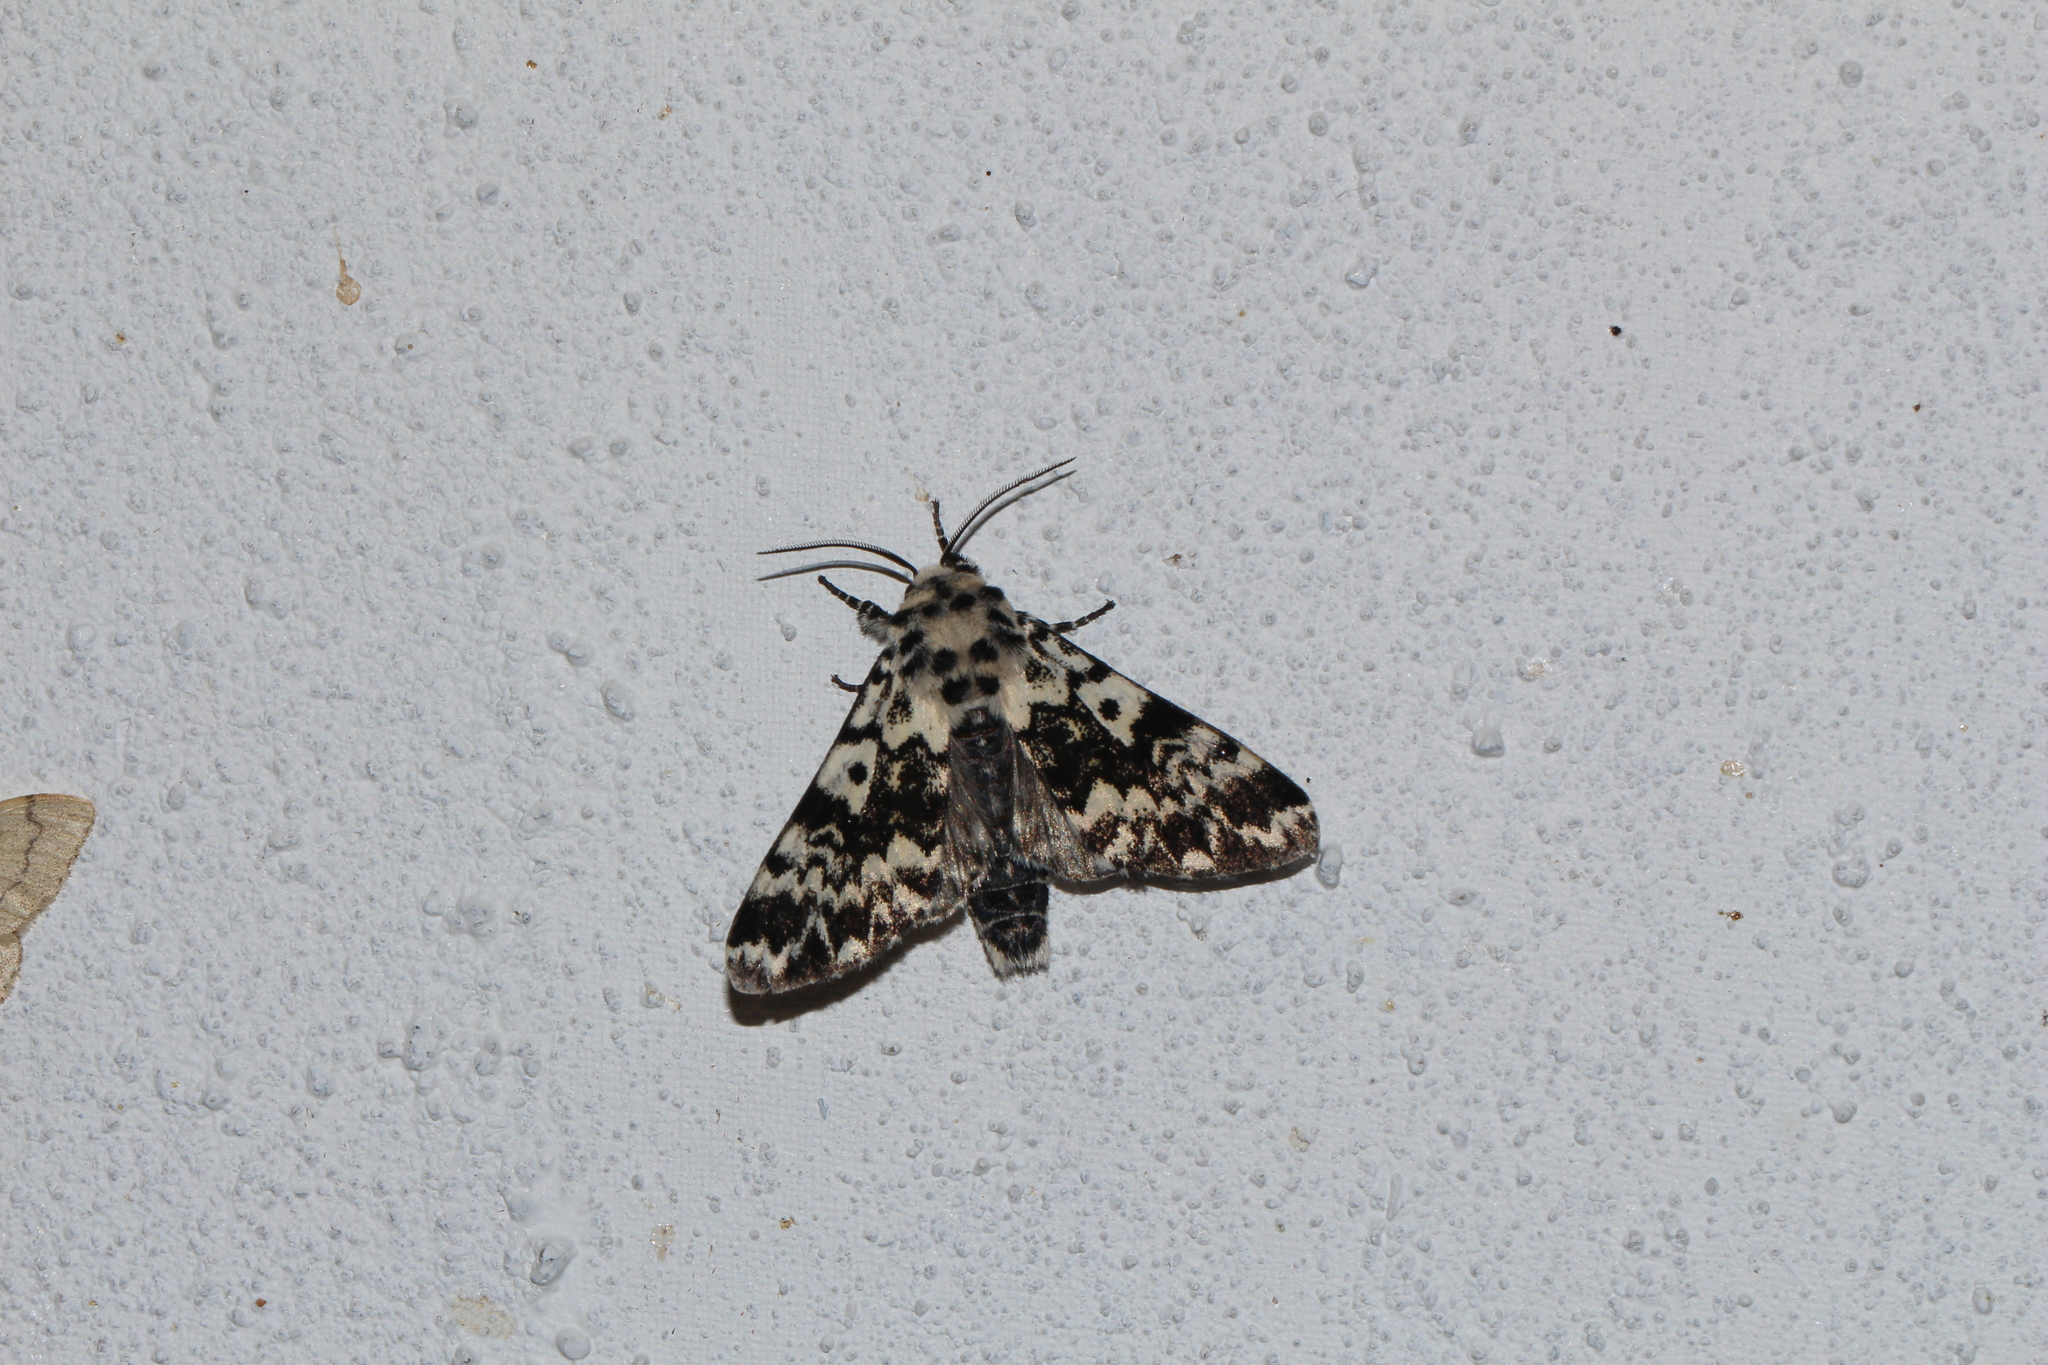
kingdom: Animalia
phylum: Arthropoda
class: Insecta
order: Lepidoptera
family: Noctuidae
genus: Panthea
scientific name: Panthea coenobita
